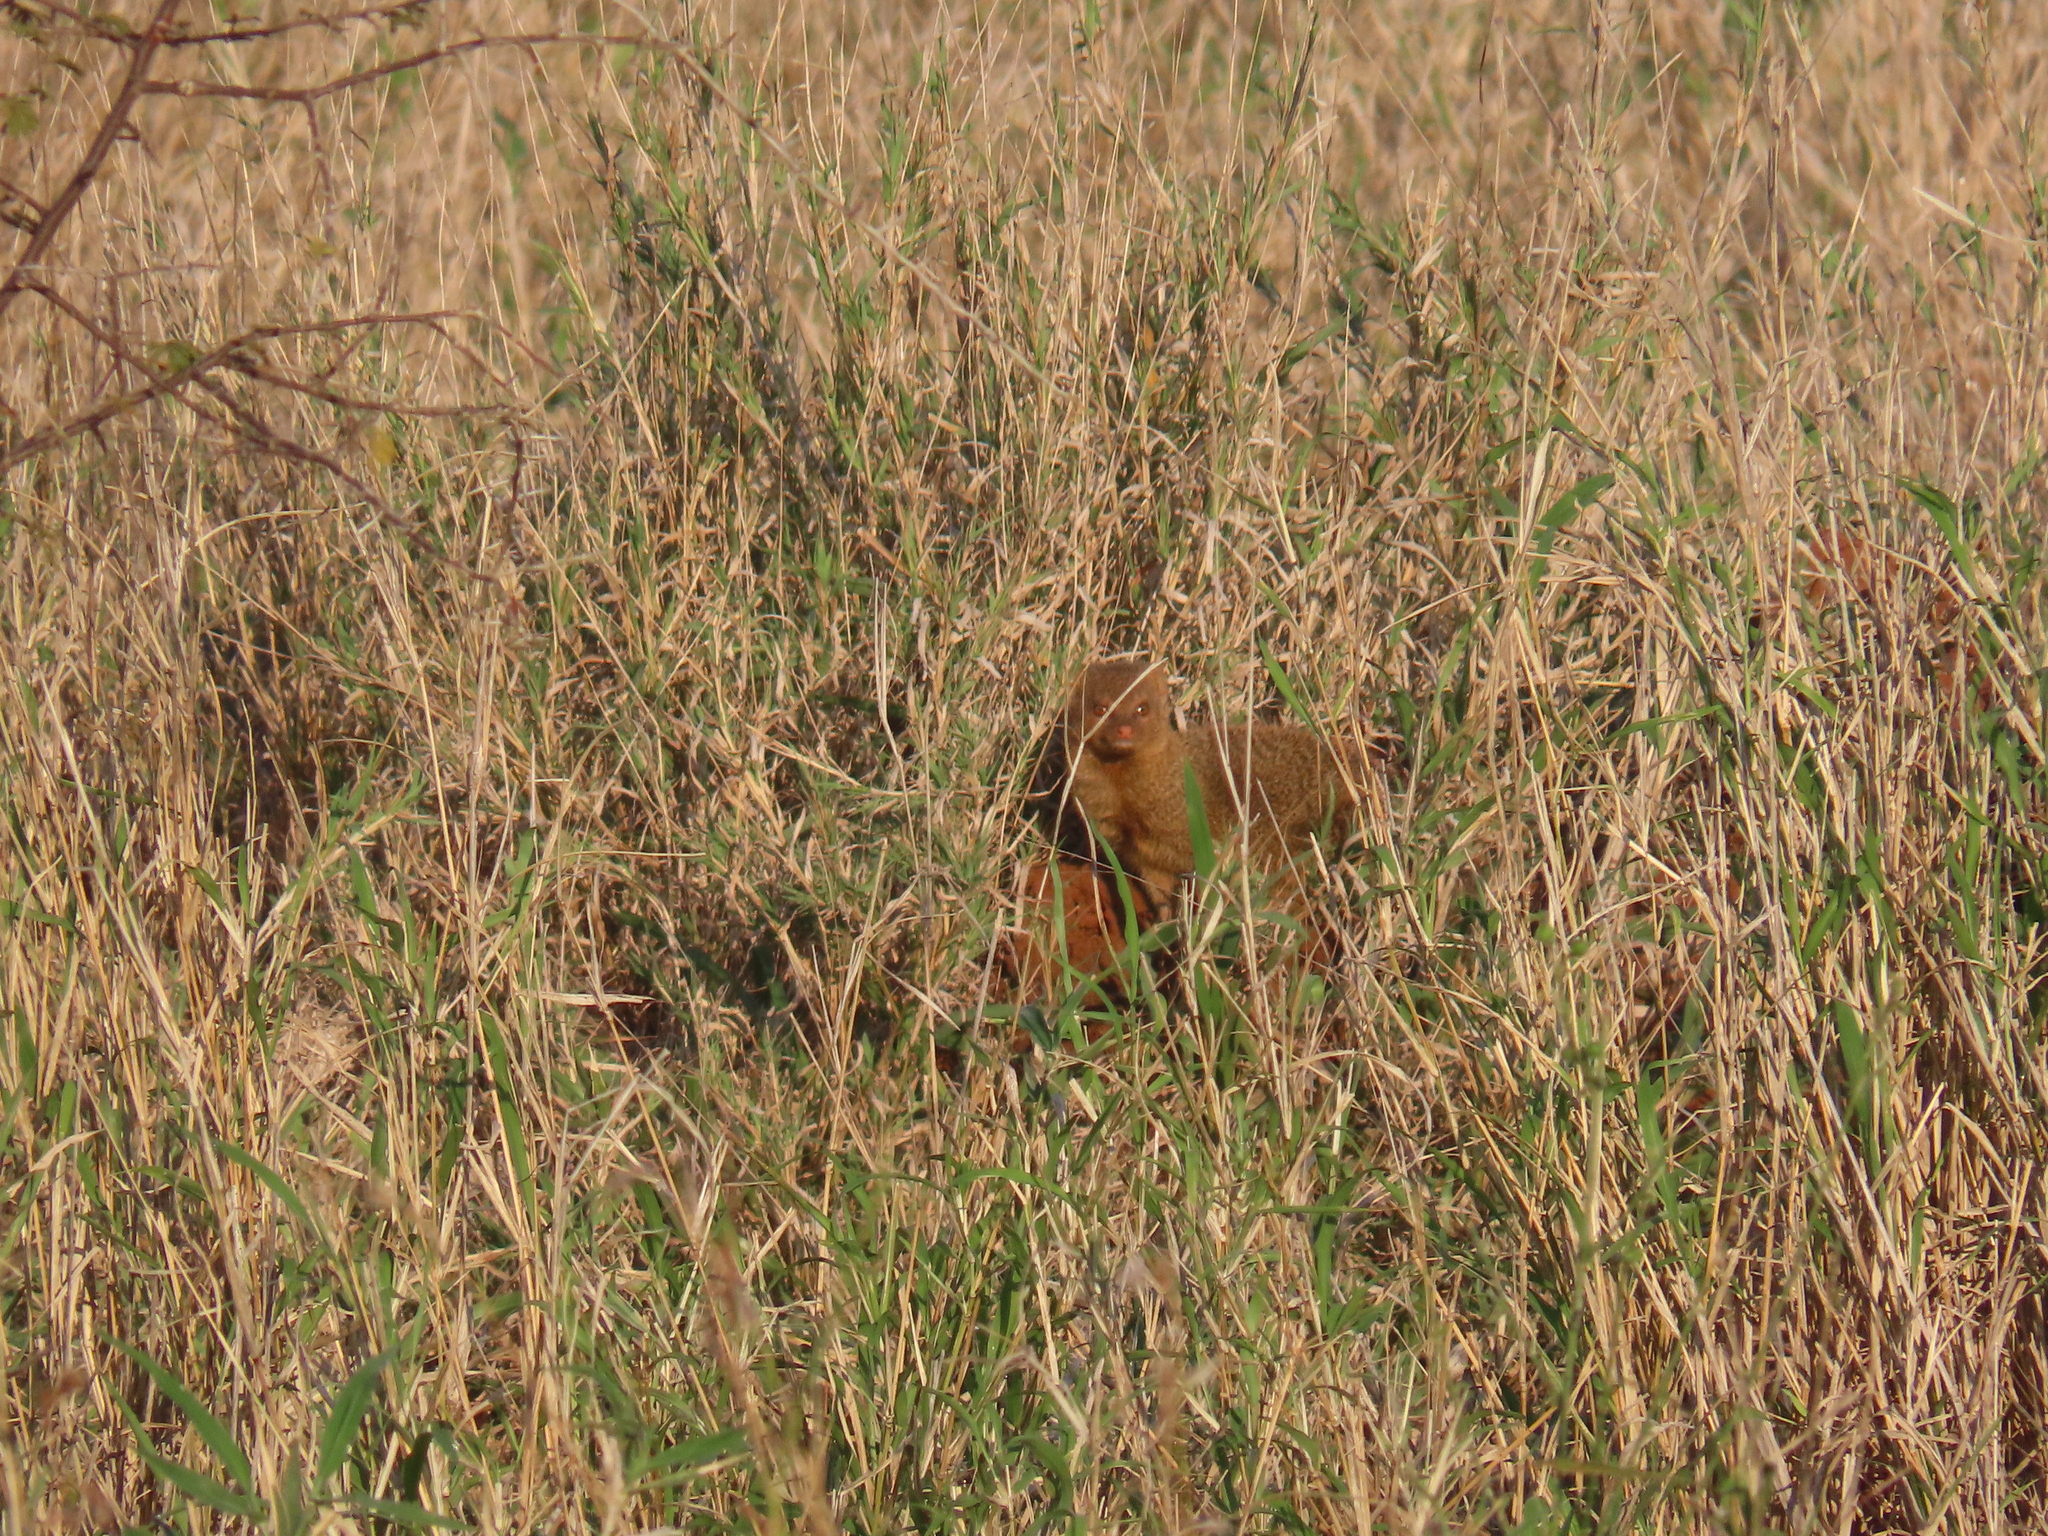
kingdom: Animalia
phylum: Chordata
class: Mammalia
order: Carnivora
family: Herpestidae
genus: Galerella
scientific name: Galerella sanguinea
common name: Slender mongoose
